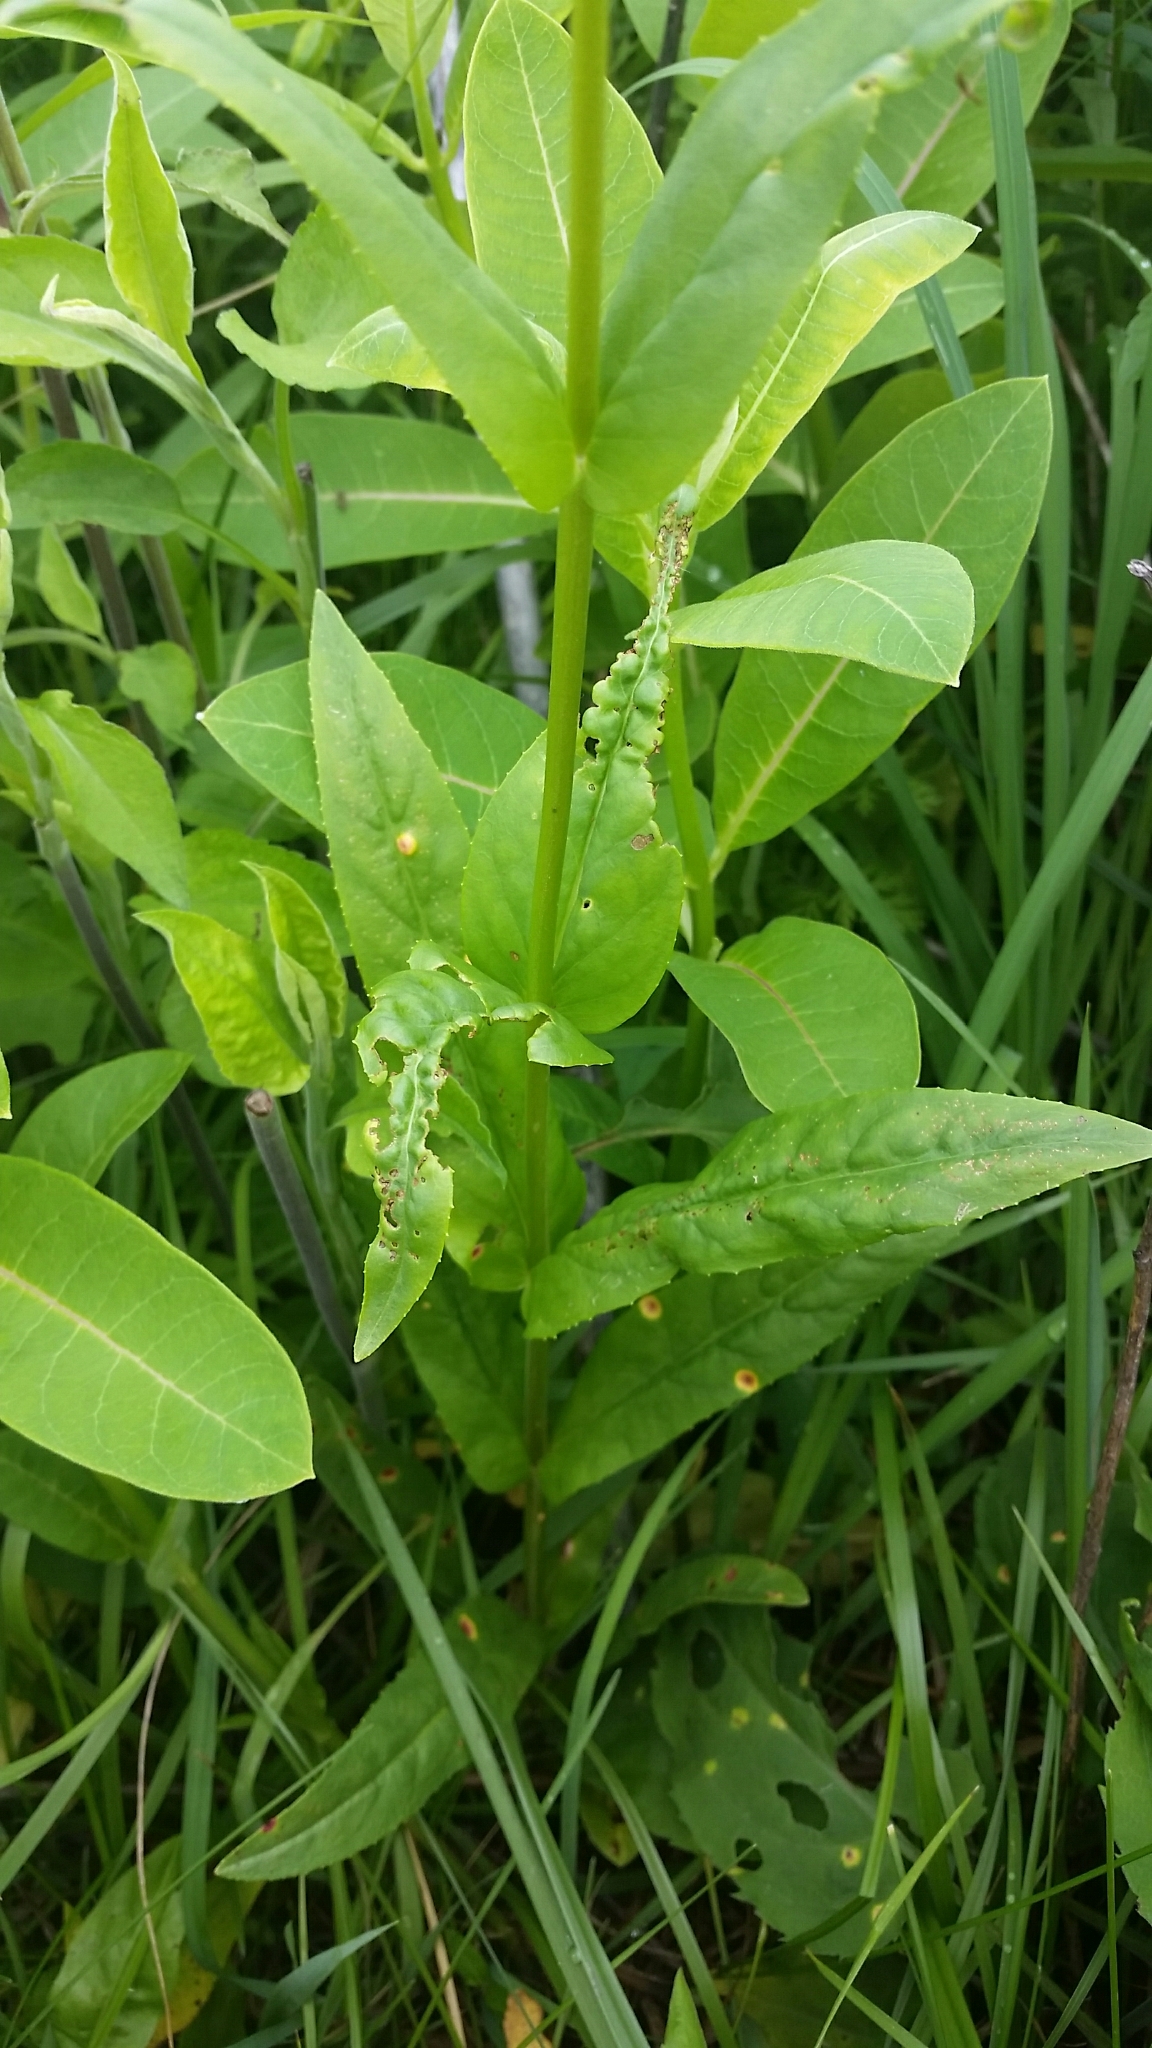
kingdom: Plantae
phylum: Tracheophyta
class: Magnoliopsida
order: Lamiales
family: Plantaginaceae
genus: Penstemon
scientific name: Penstemon digitalis
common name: Foxglove beardtongue
